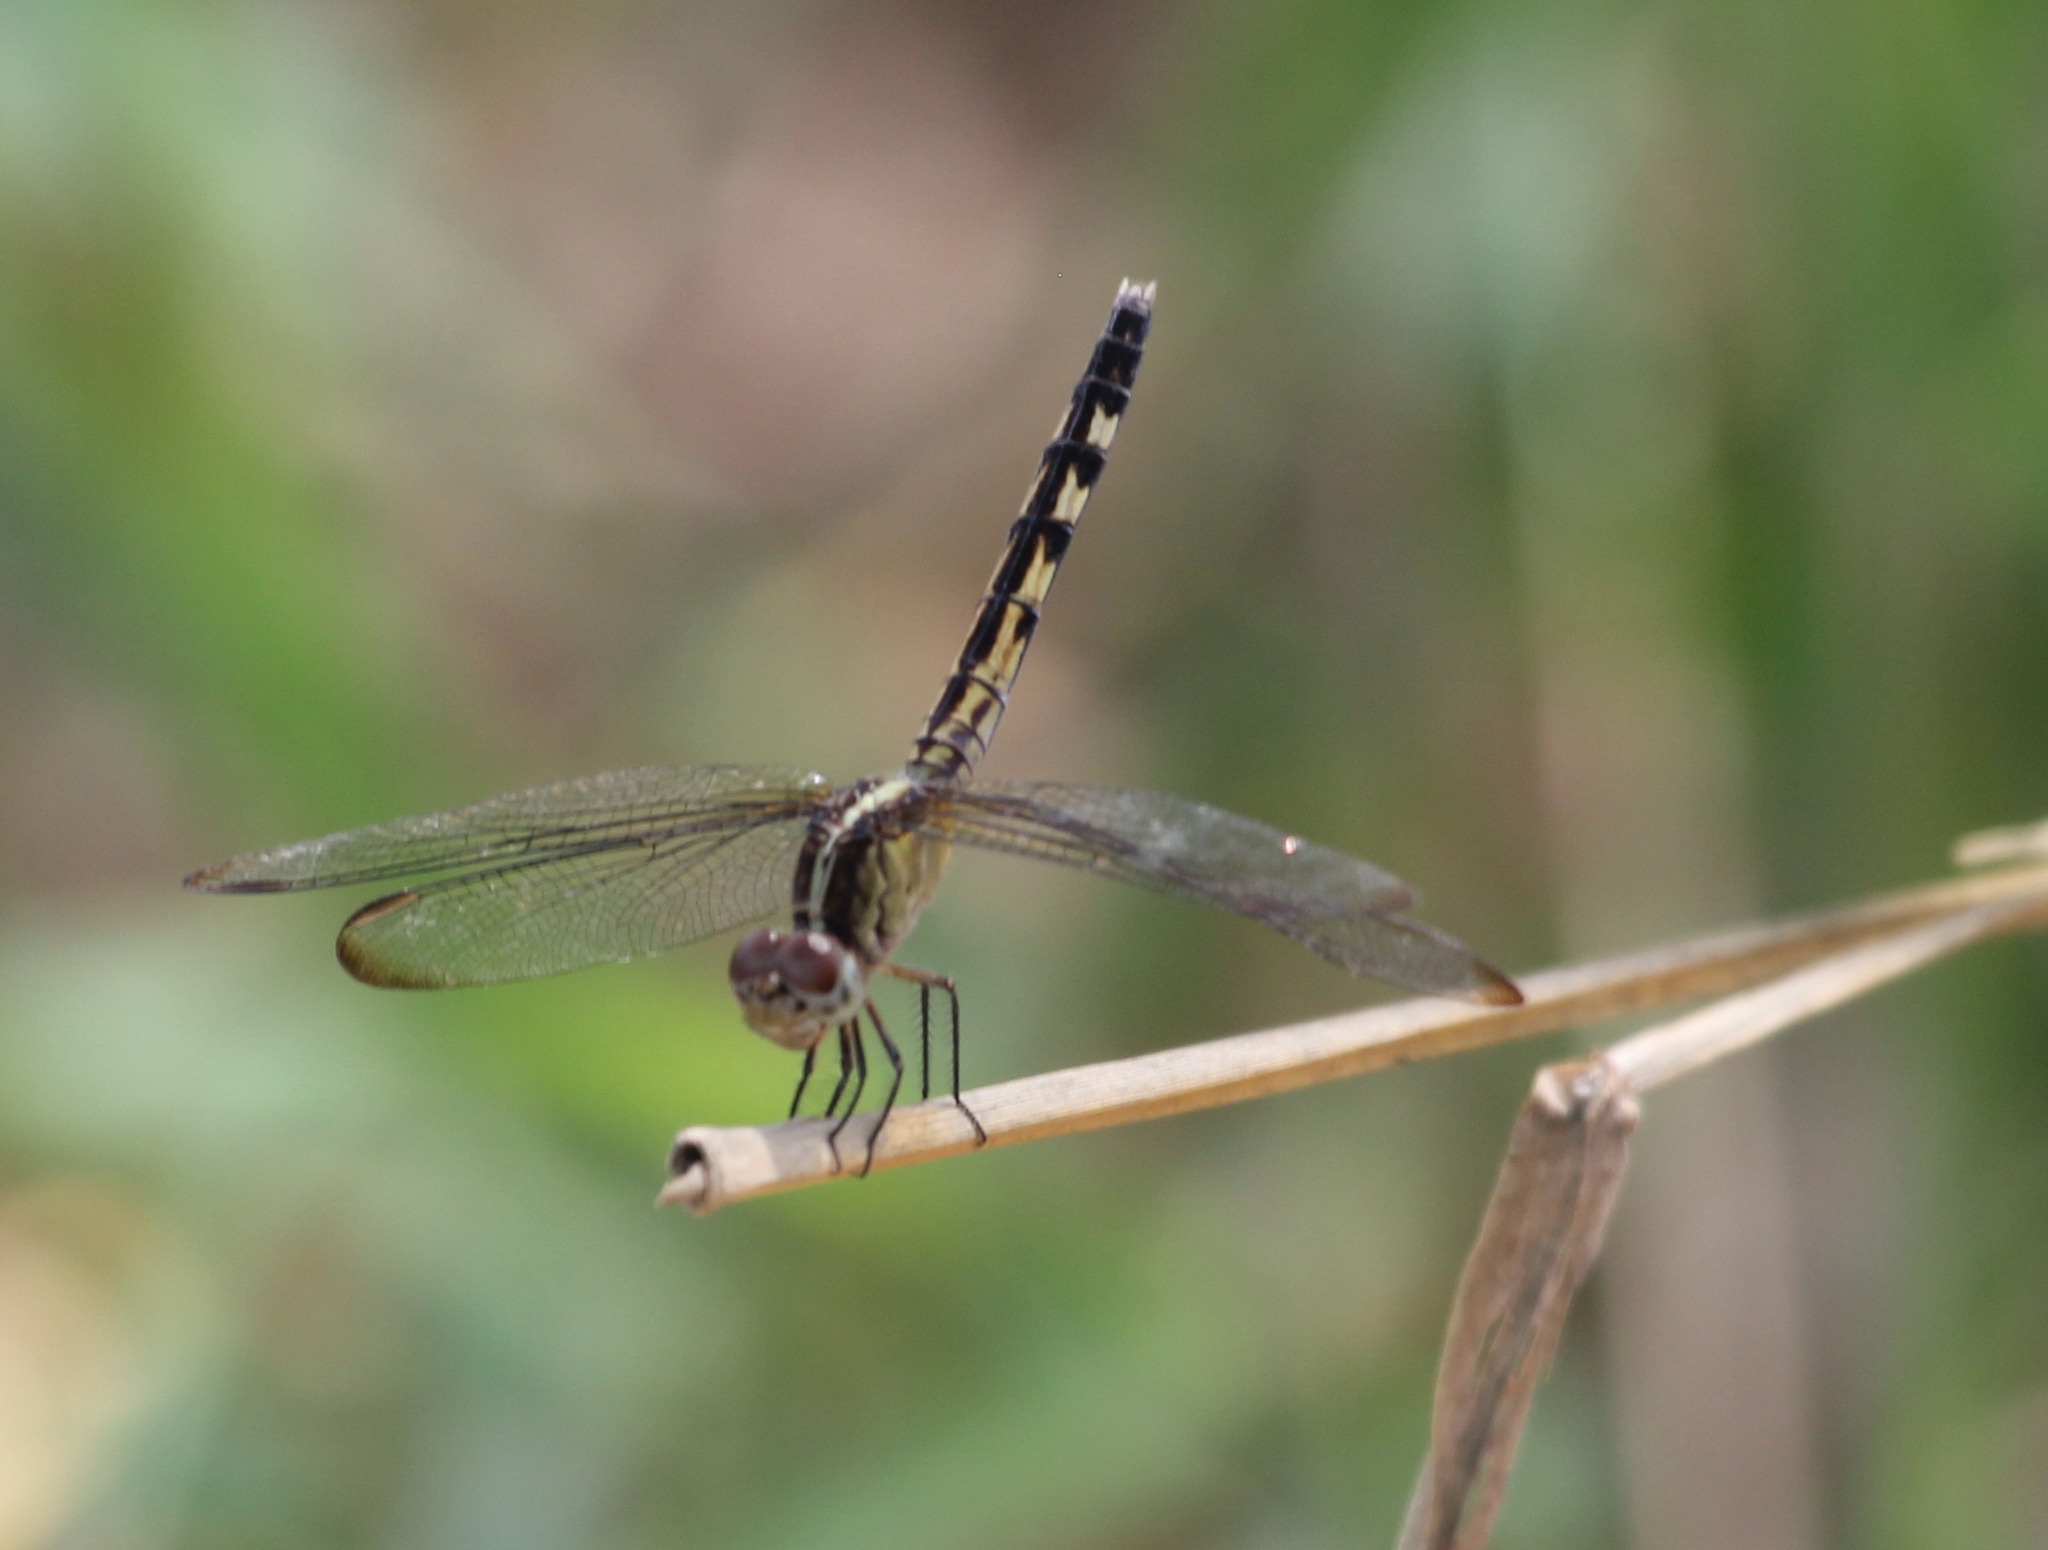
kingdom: Animalia
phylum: Arthropoda
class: Insecta
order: Odonata
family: Libellulidae
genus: Erythrodiplax
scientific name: Erythrodiplax umbrata
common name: Band-winged dragonlet
